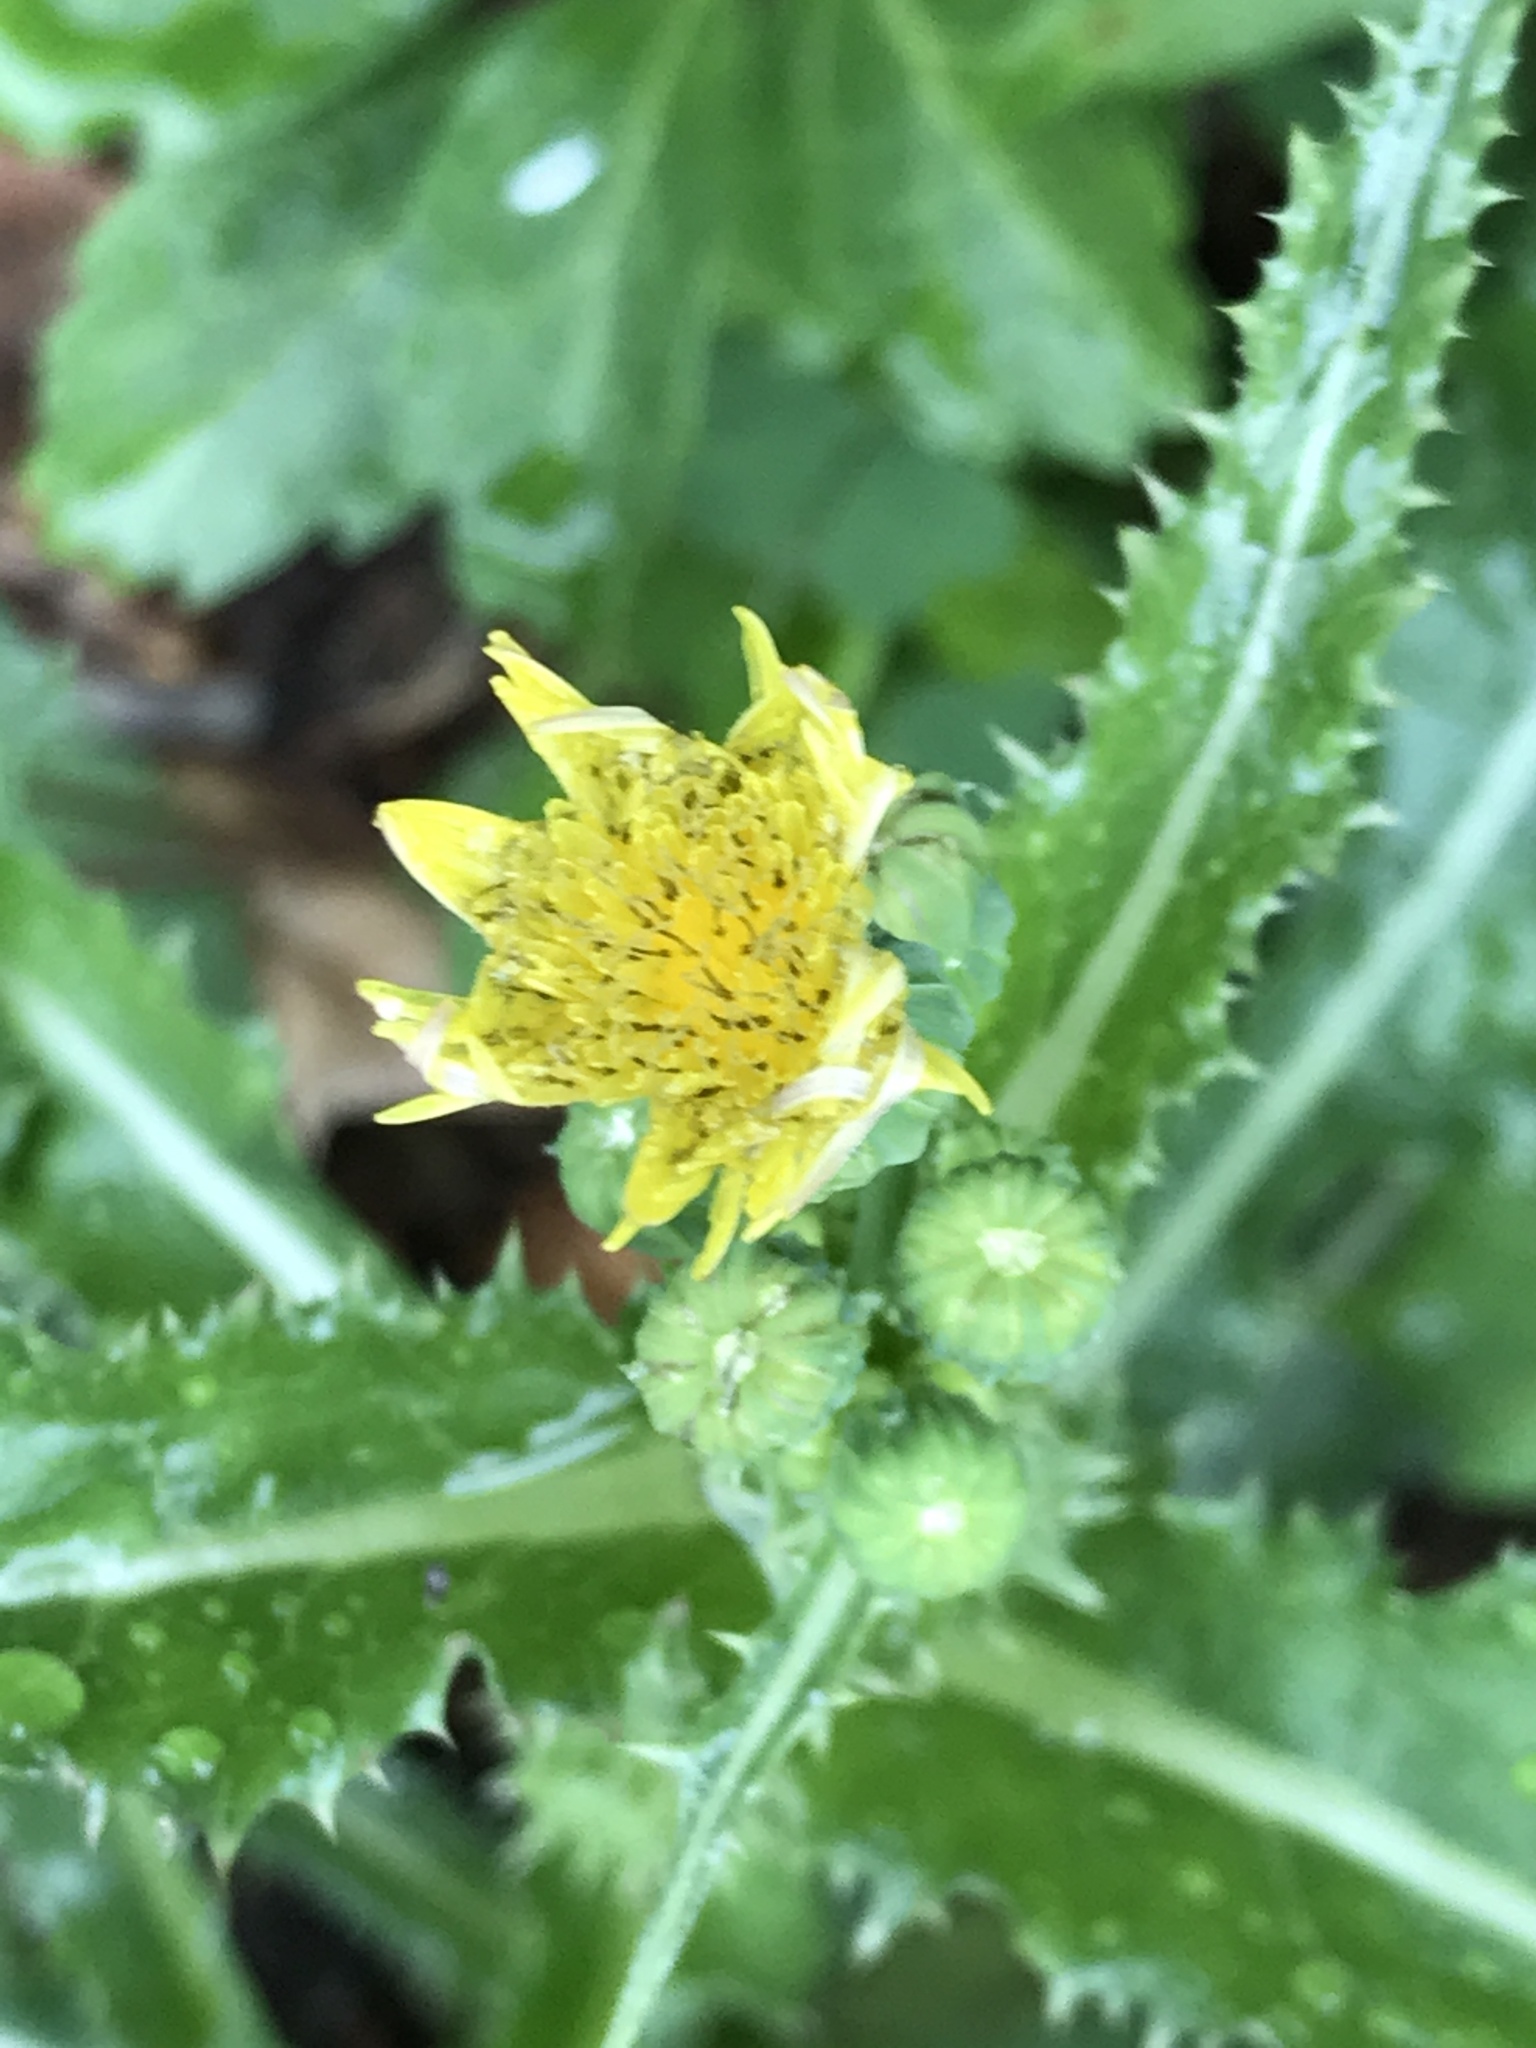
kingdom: Plantae
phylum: Tracheophyta
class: Magnoliopsida
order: Asterales
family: Asteraceae
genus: Sonchus
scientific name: Sonchus oleraceus
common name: Common sowthistle
